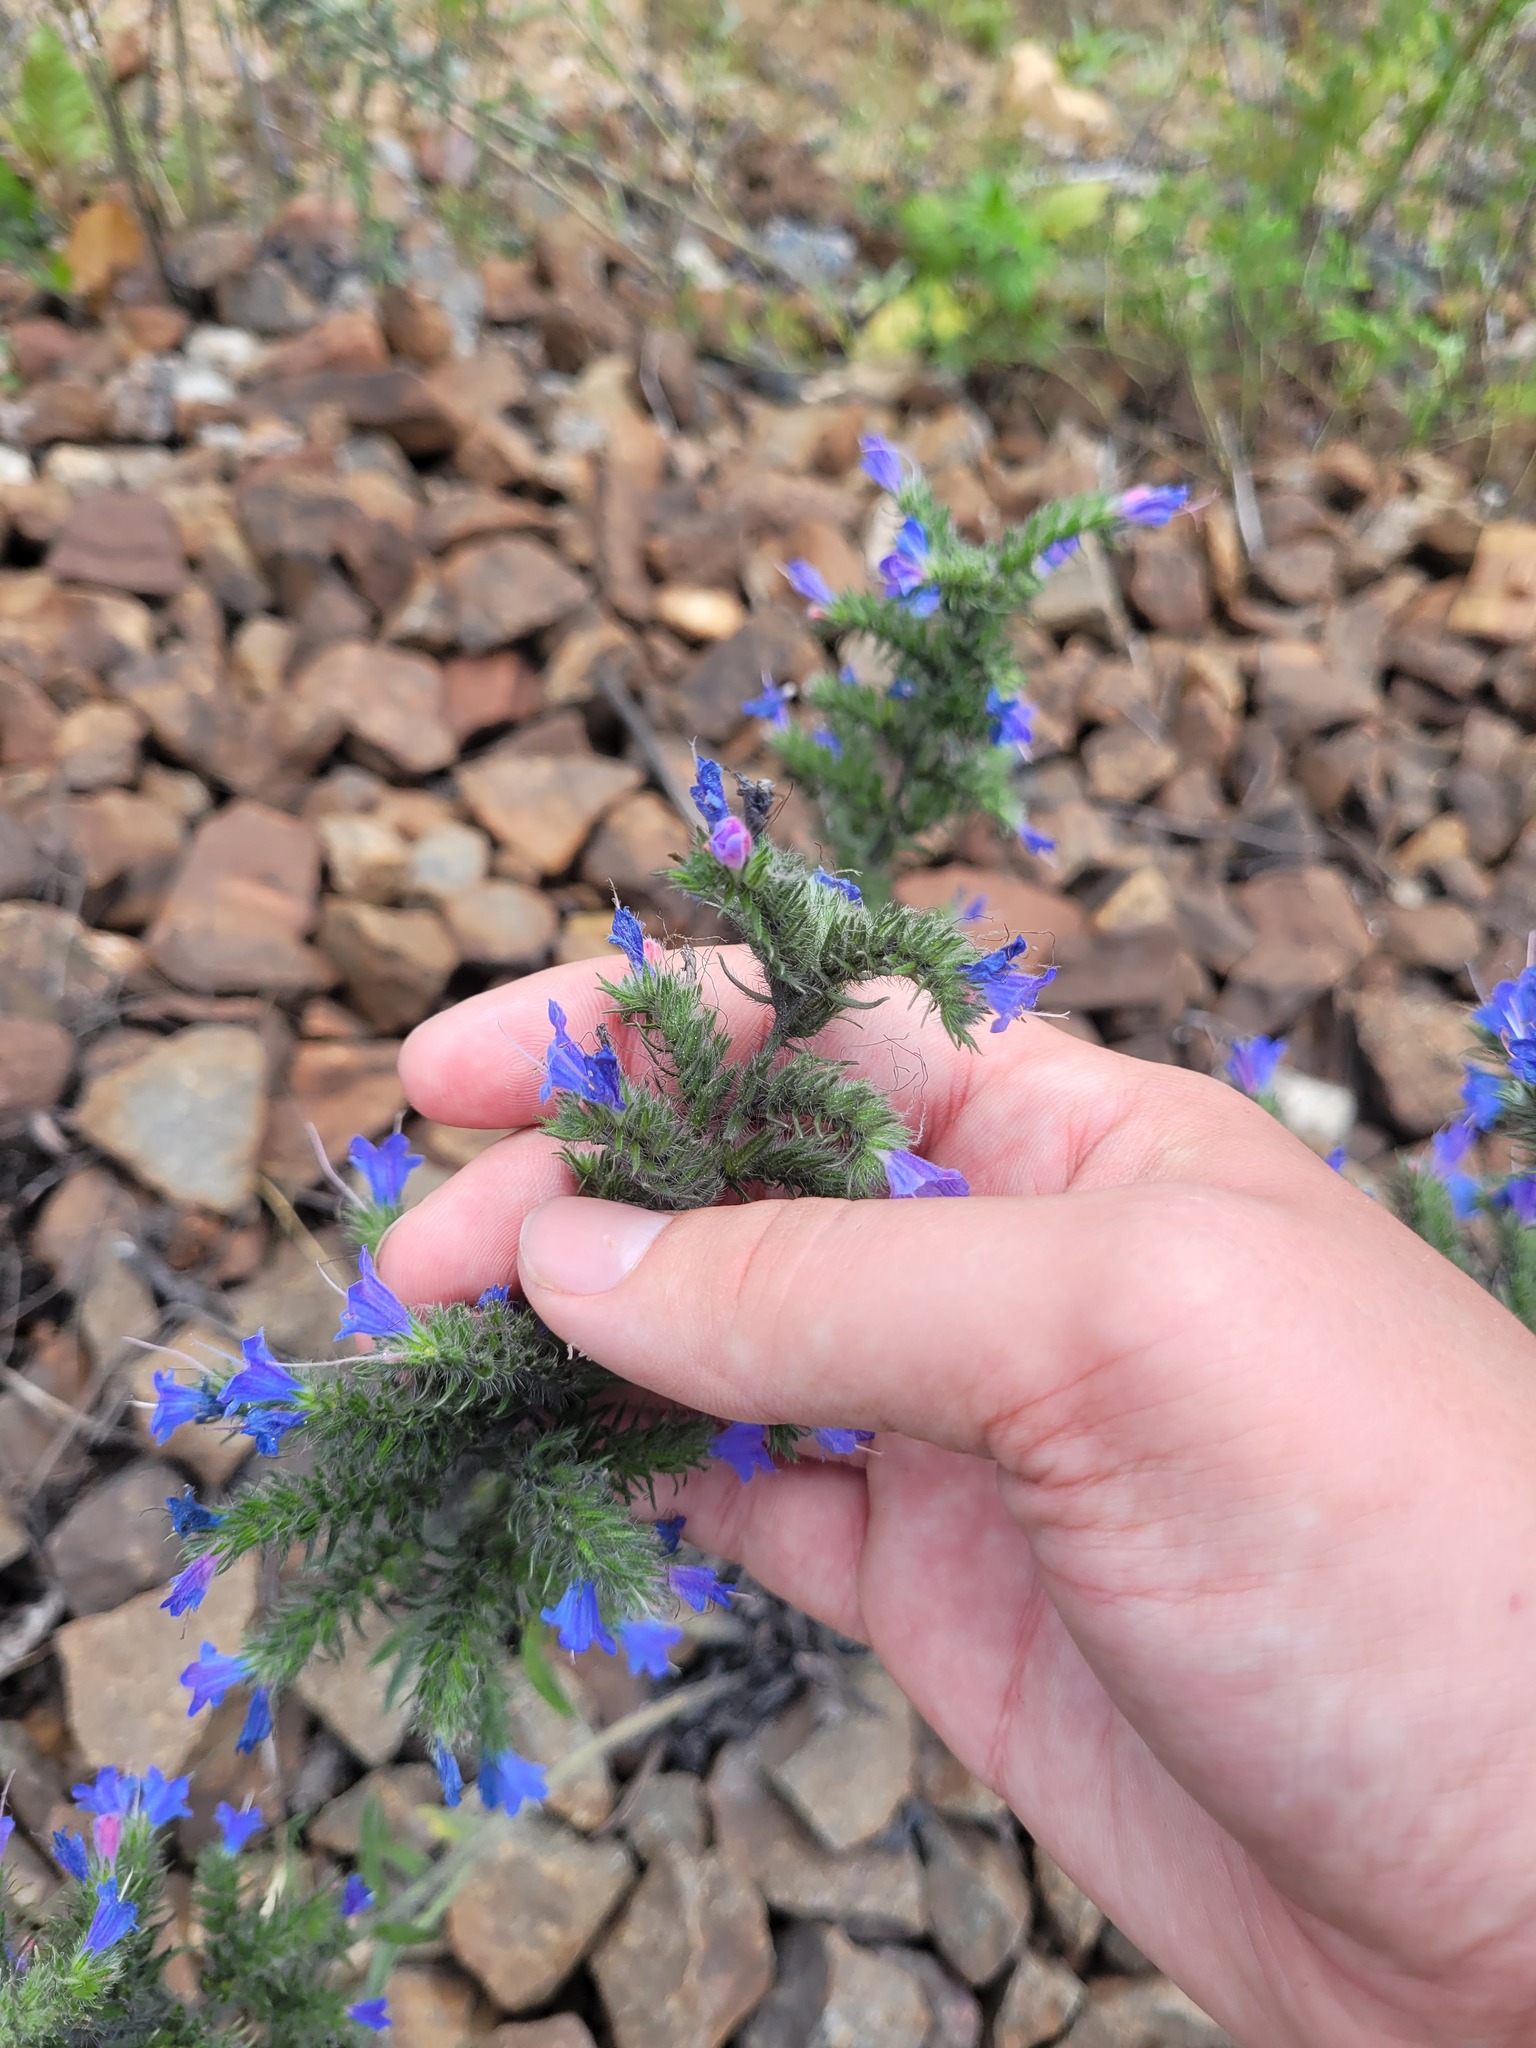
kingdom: Plantae
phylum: Tracheophyta
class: Magnoliopsida
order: Boraginales
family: Boraginaceae
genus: Echium
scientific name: Echium vulgare
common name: Common viper's bugloss
